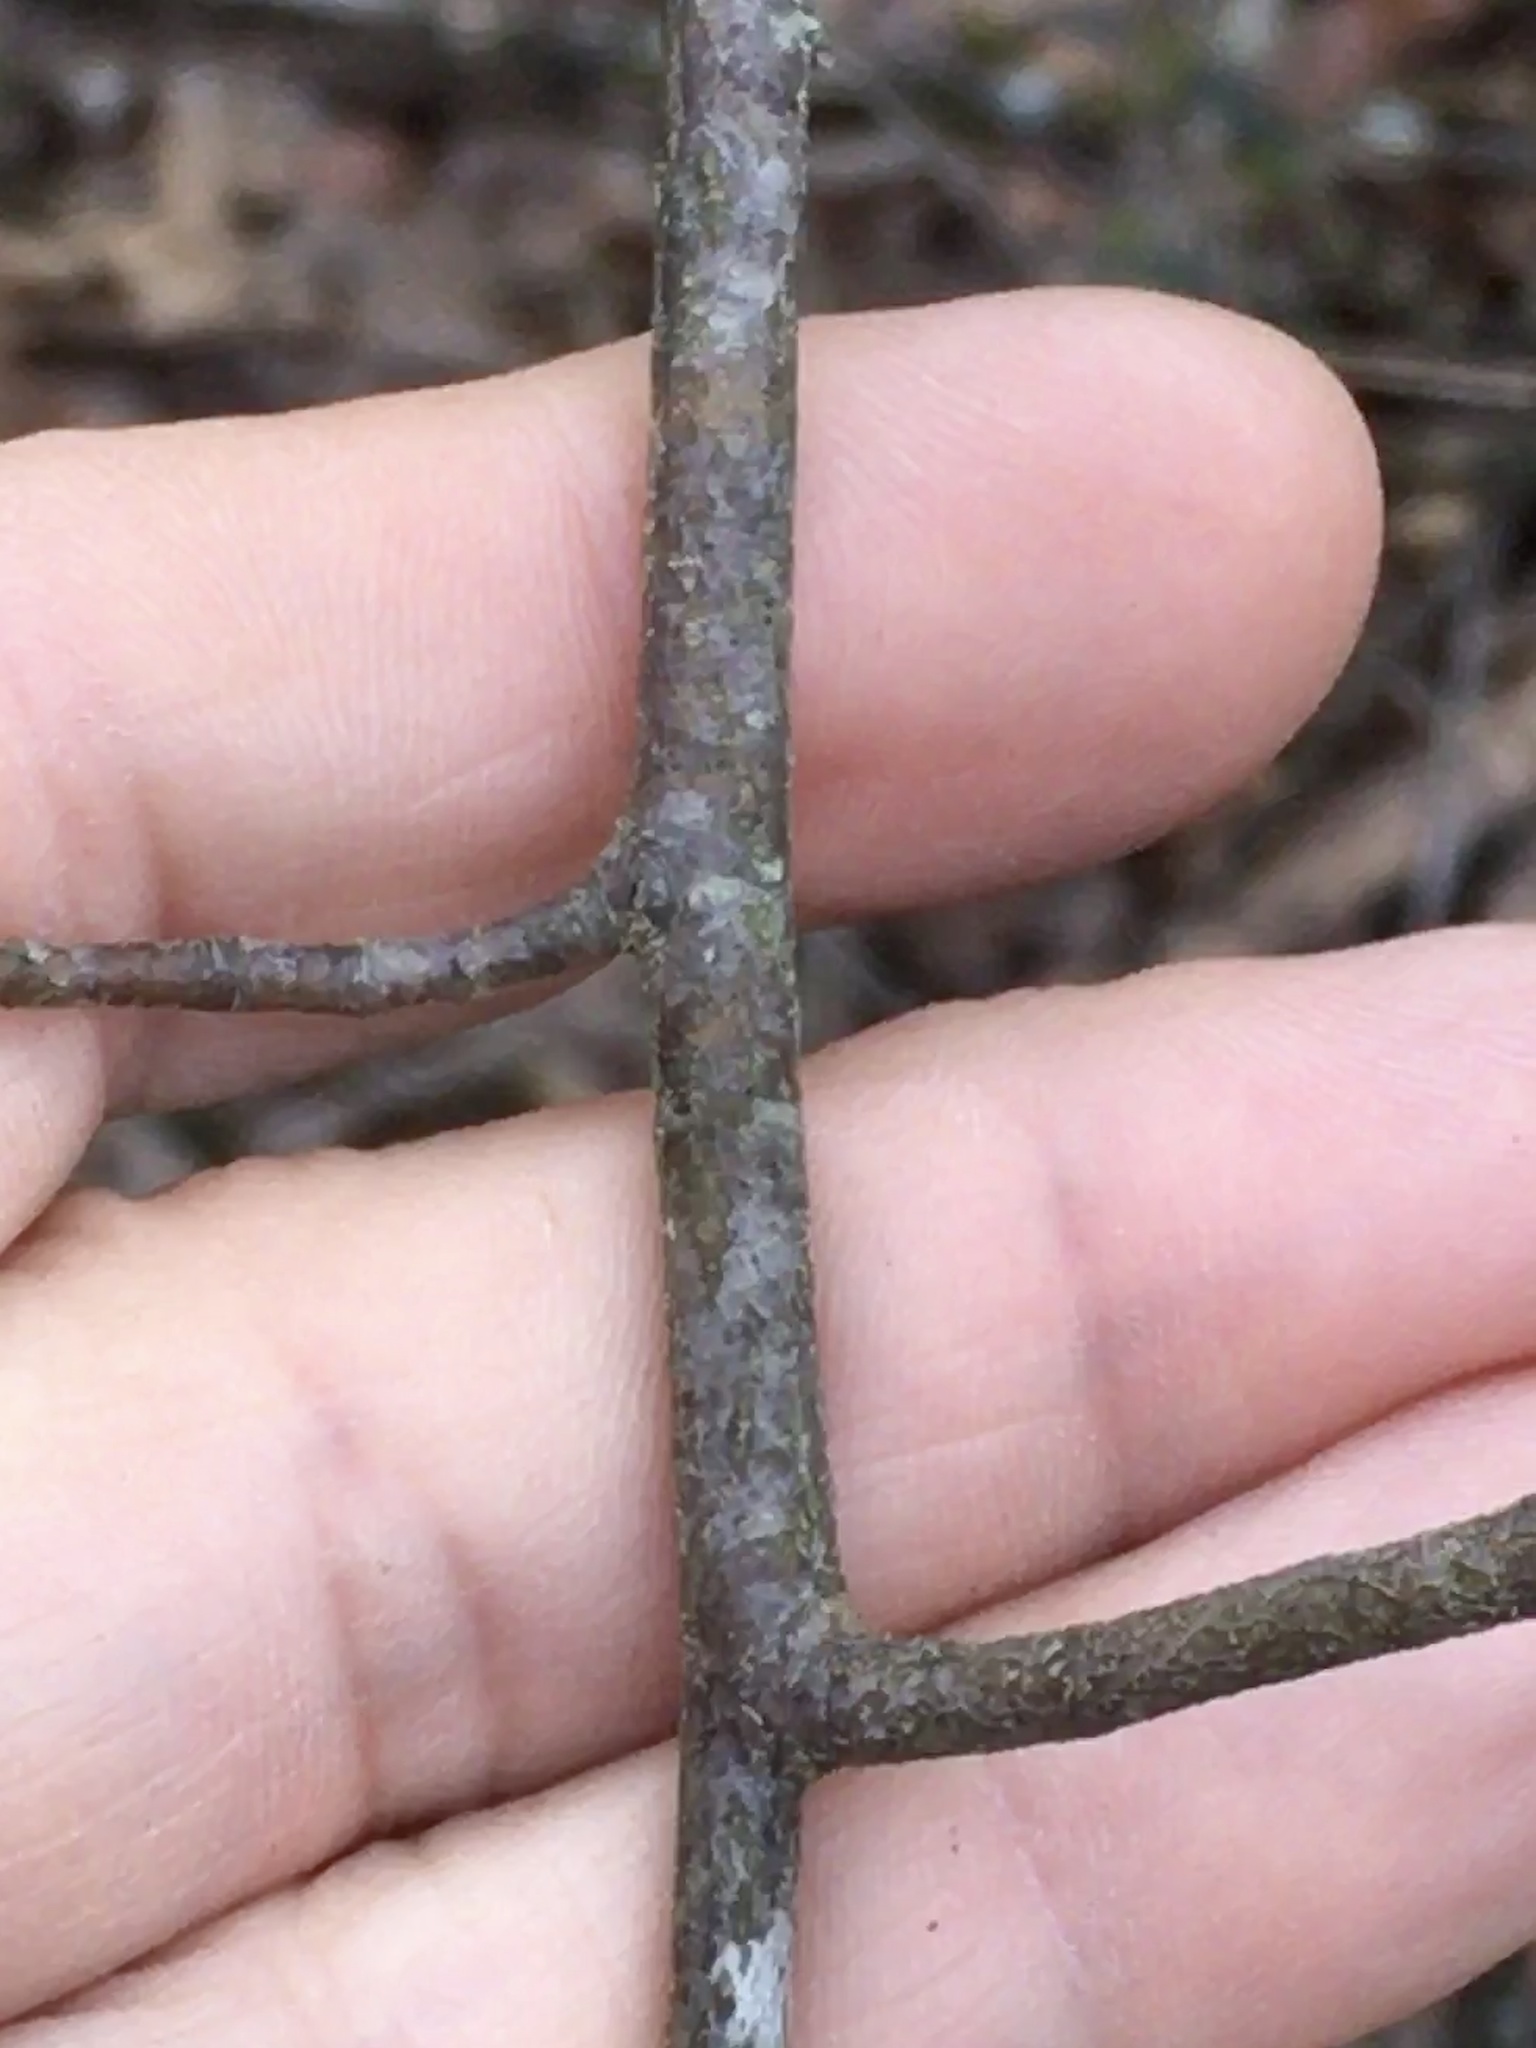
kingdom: Plantae
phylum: Tracheophyta
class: Magnoliopsida
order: Rosales
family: Rosaceae
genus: Amelanchier
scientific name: Amelanchier arborea
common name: Downy serviceberry
